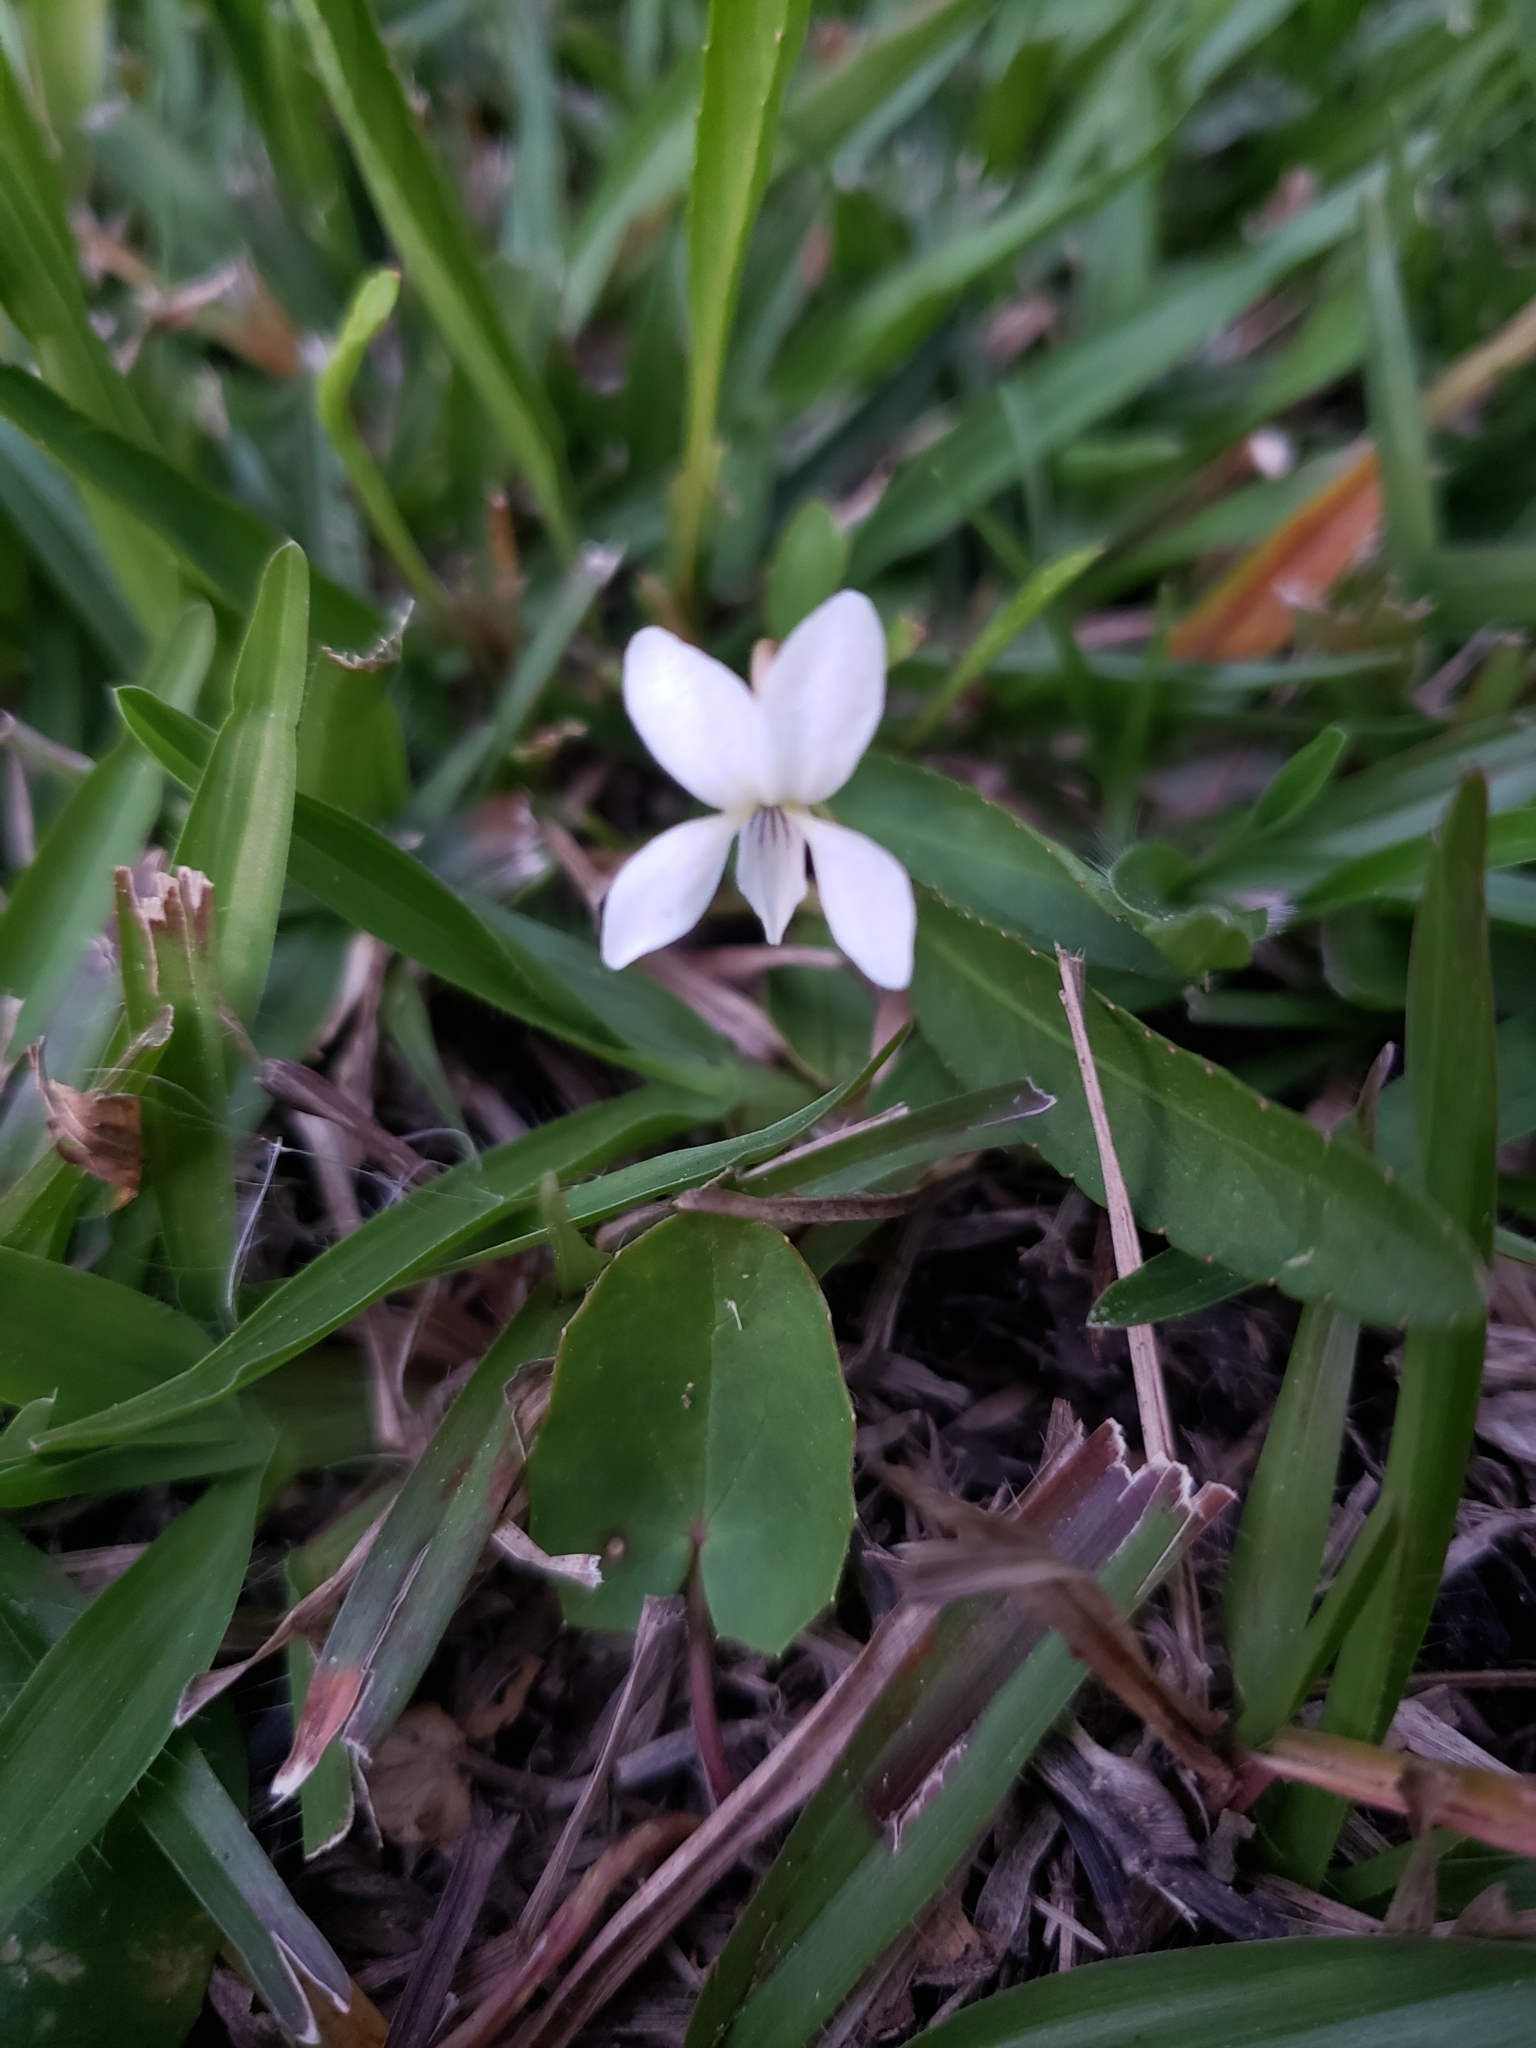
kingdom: Plantae
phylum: Tracheophyta
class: Magnoliopsida
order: Malpighiales
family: Violaceae
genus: Viola
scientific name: Viola lanceolata
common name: Bog white violet
